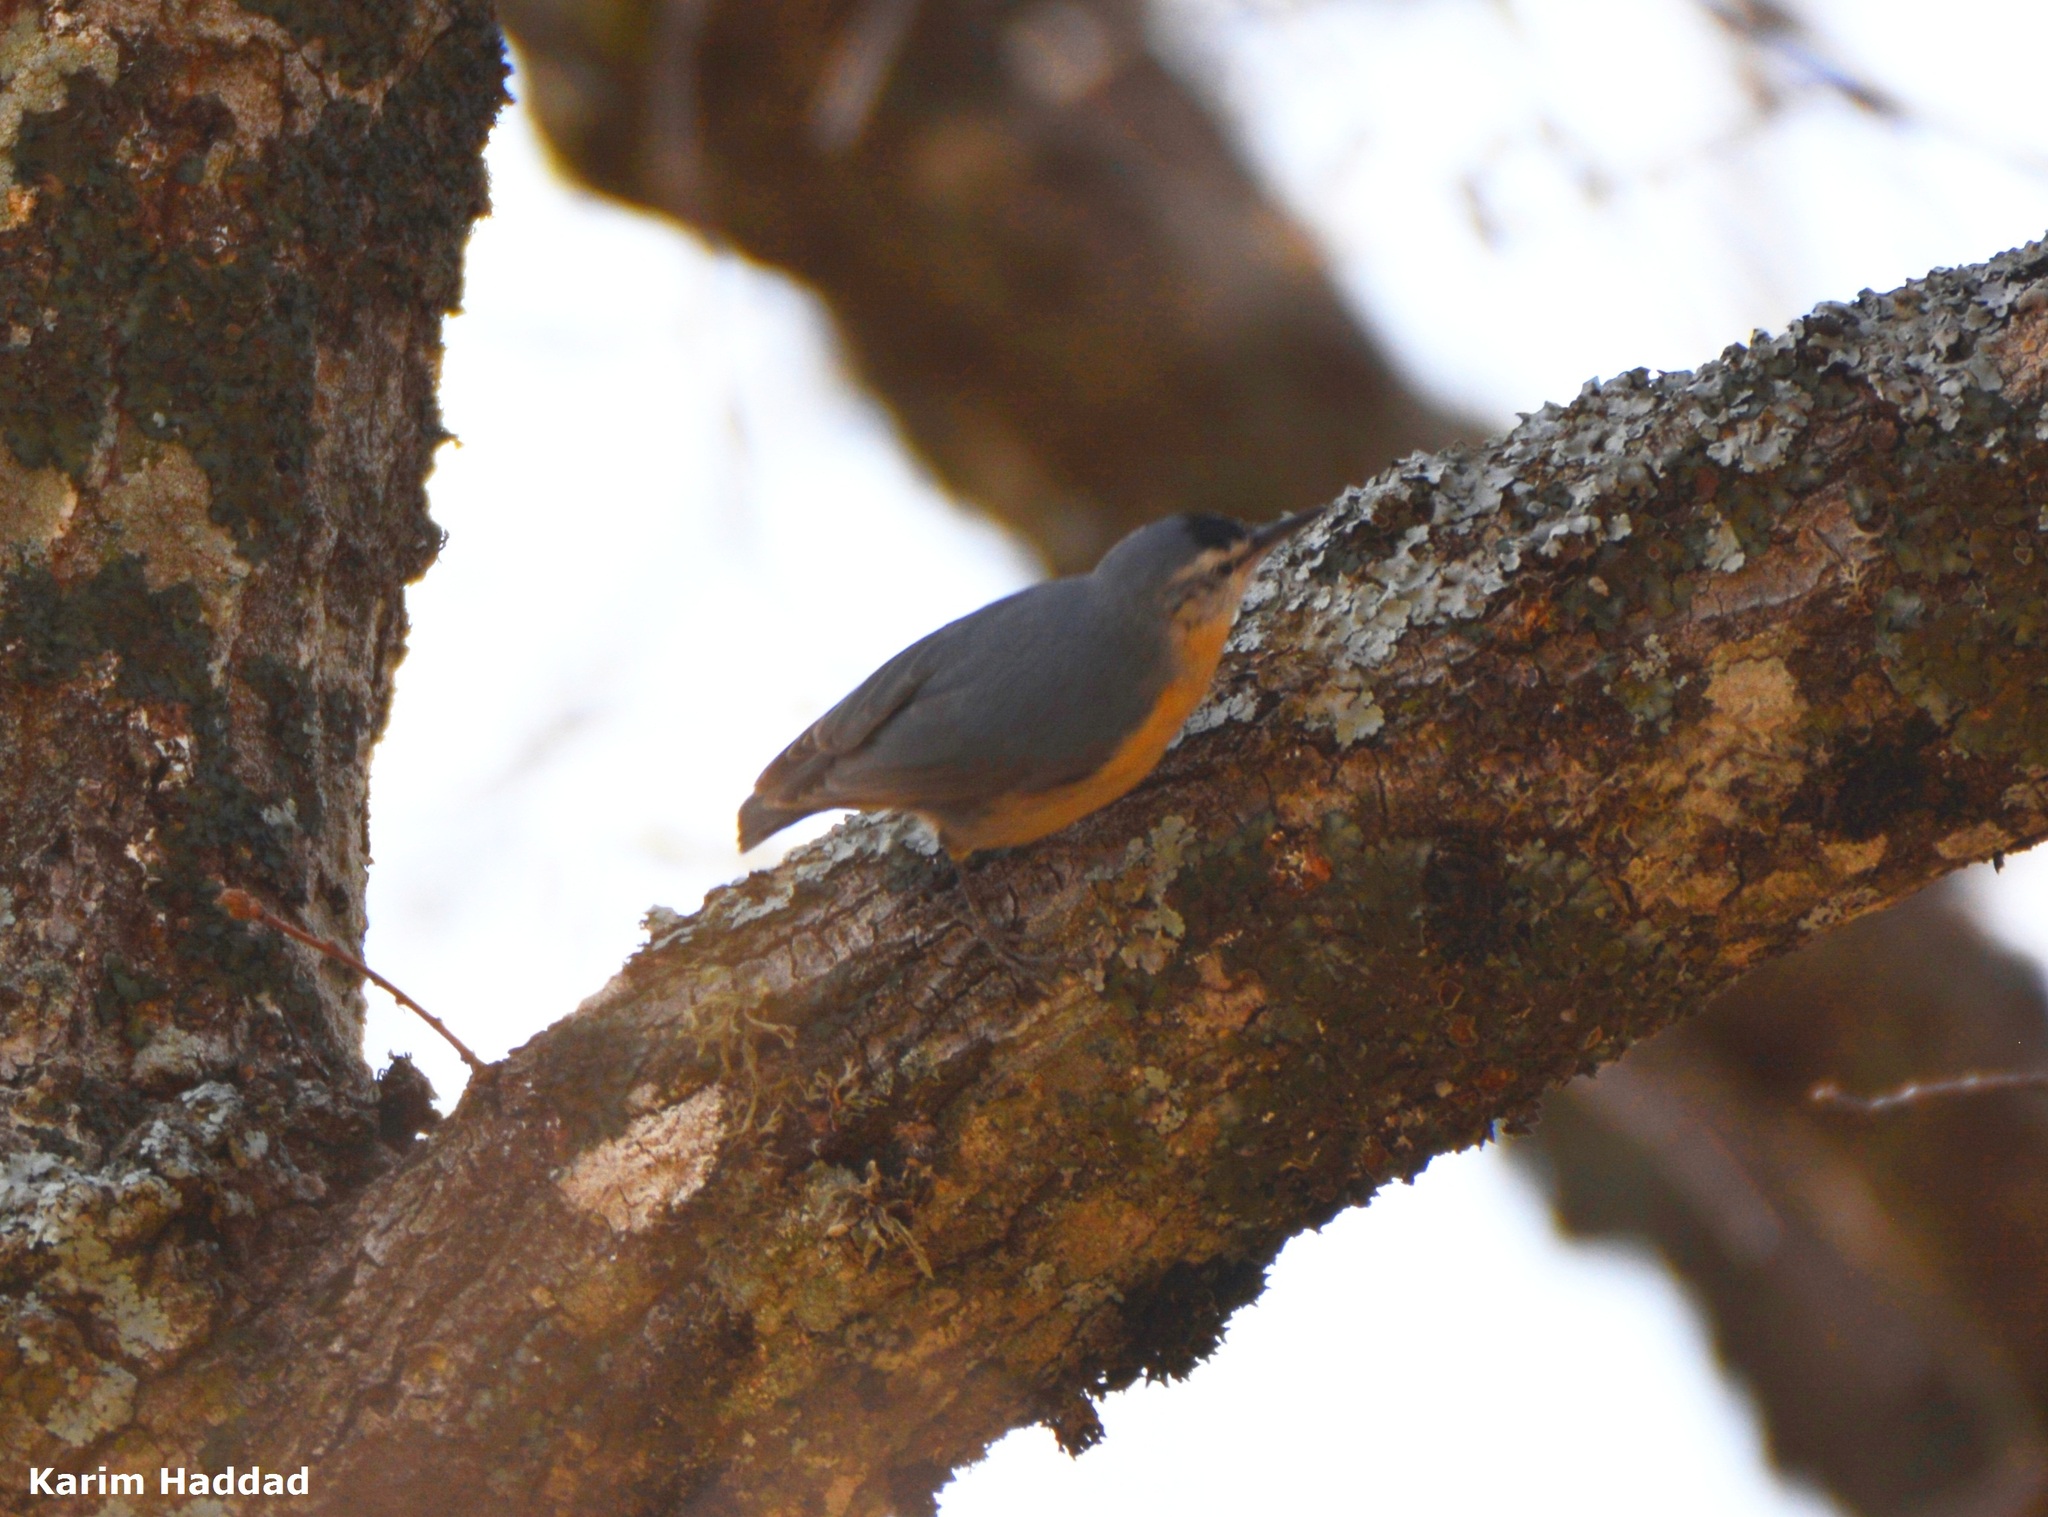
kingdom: Animalia
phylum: Chordata
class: Aves
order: Passeriformes
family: Sittidae
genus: Sitta
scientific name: Sitta ledanti
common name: Algerian nuthatch
